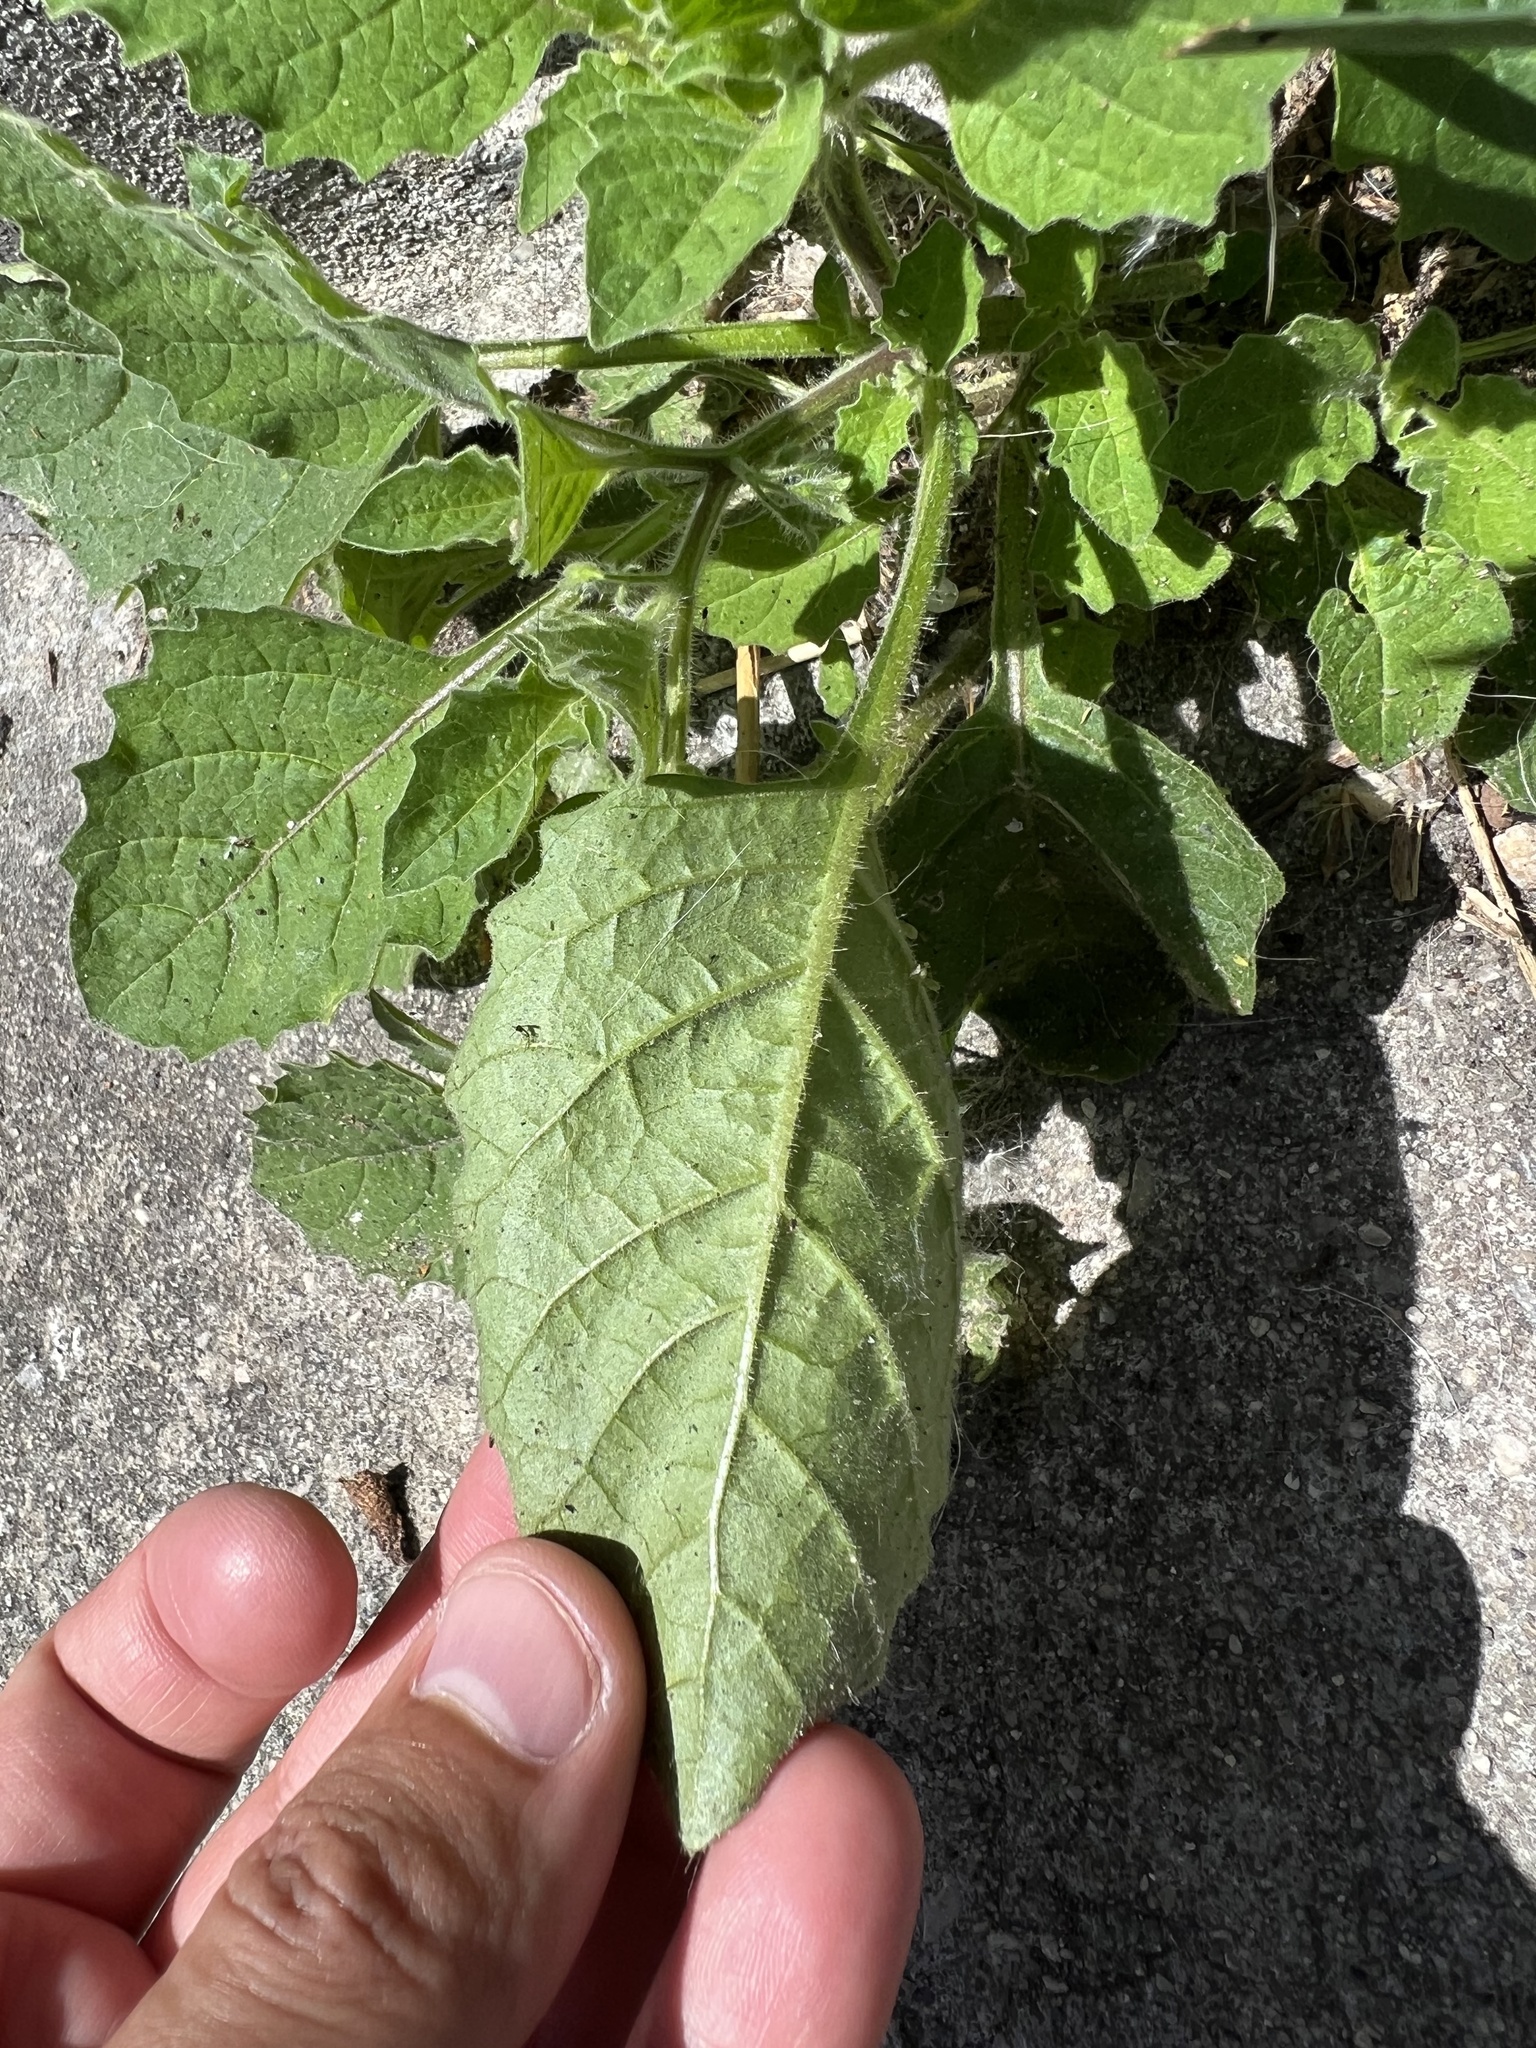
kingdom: Plantae
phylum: Tracheophyta
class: Magnoliopsida
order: Solanales
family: Solanaceae
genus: Solanum
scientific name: Solanum sarrachoides
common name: Leafy-fruited nightshade
